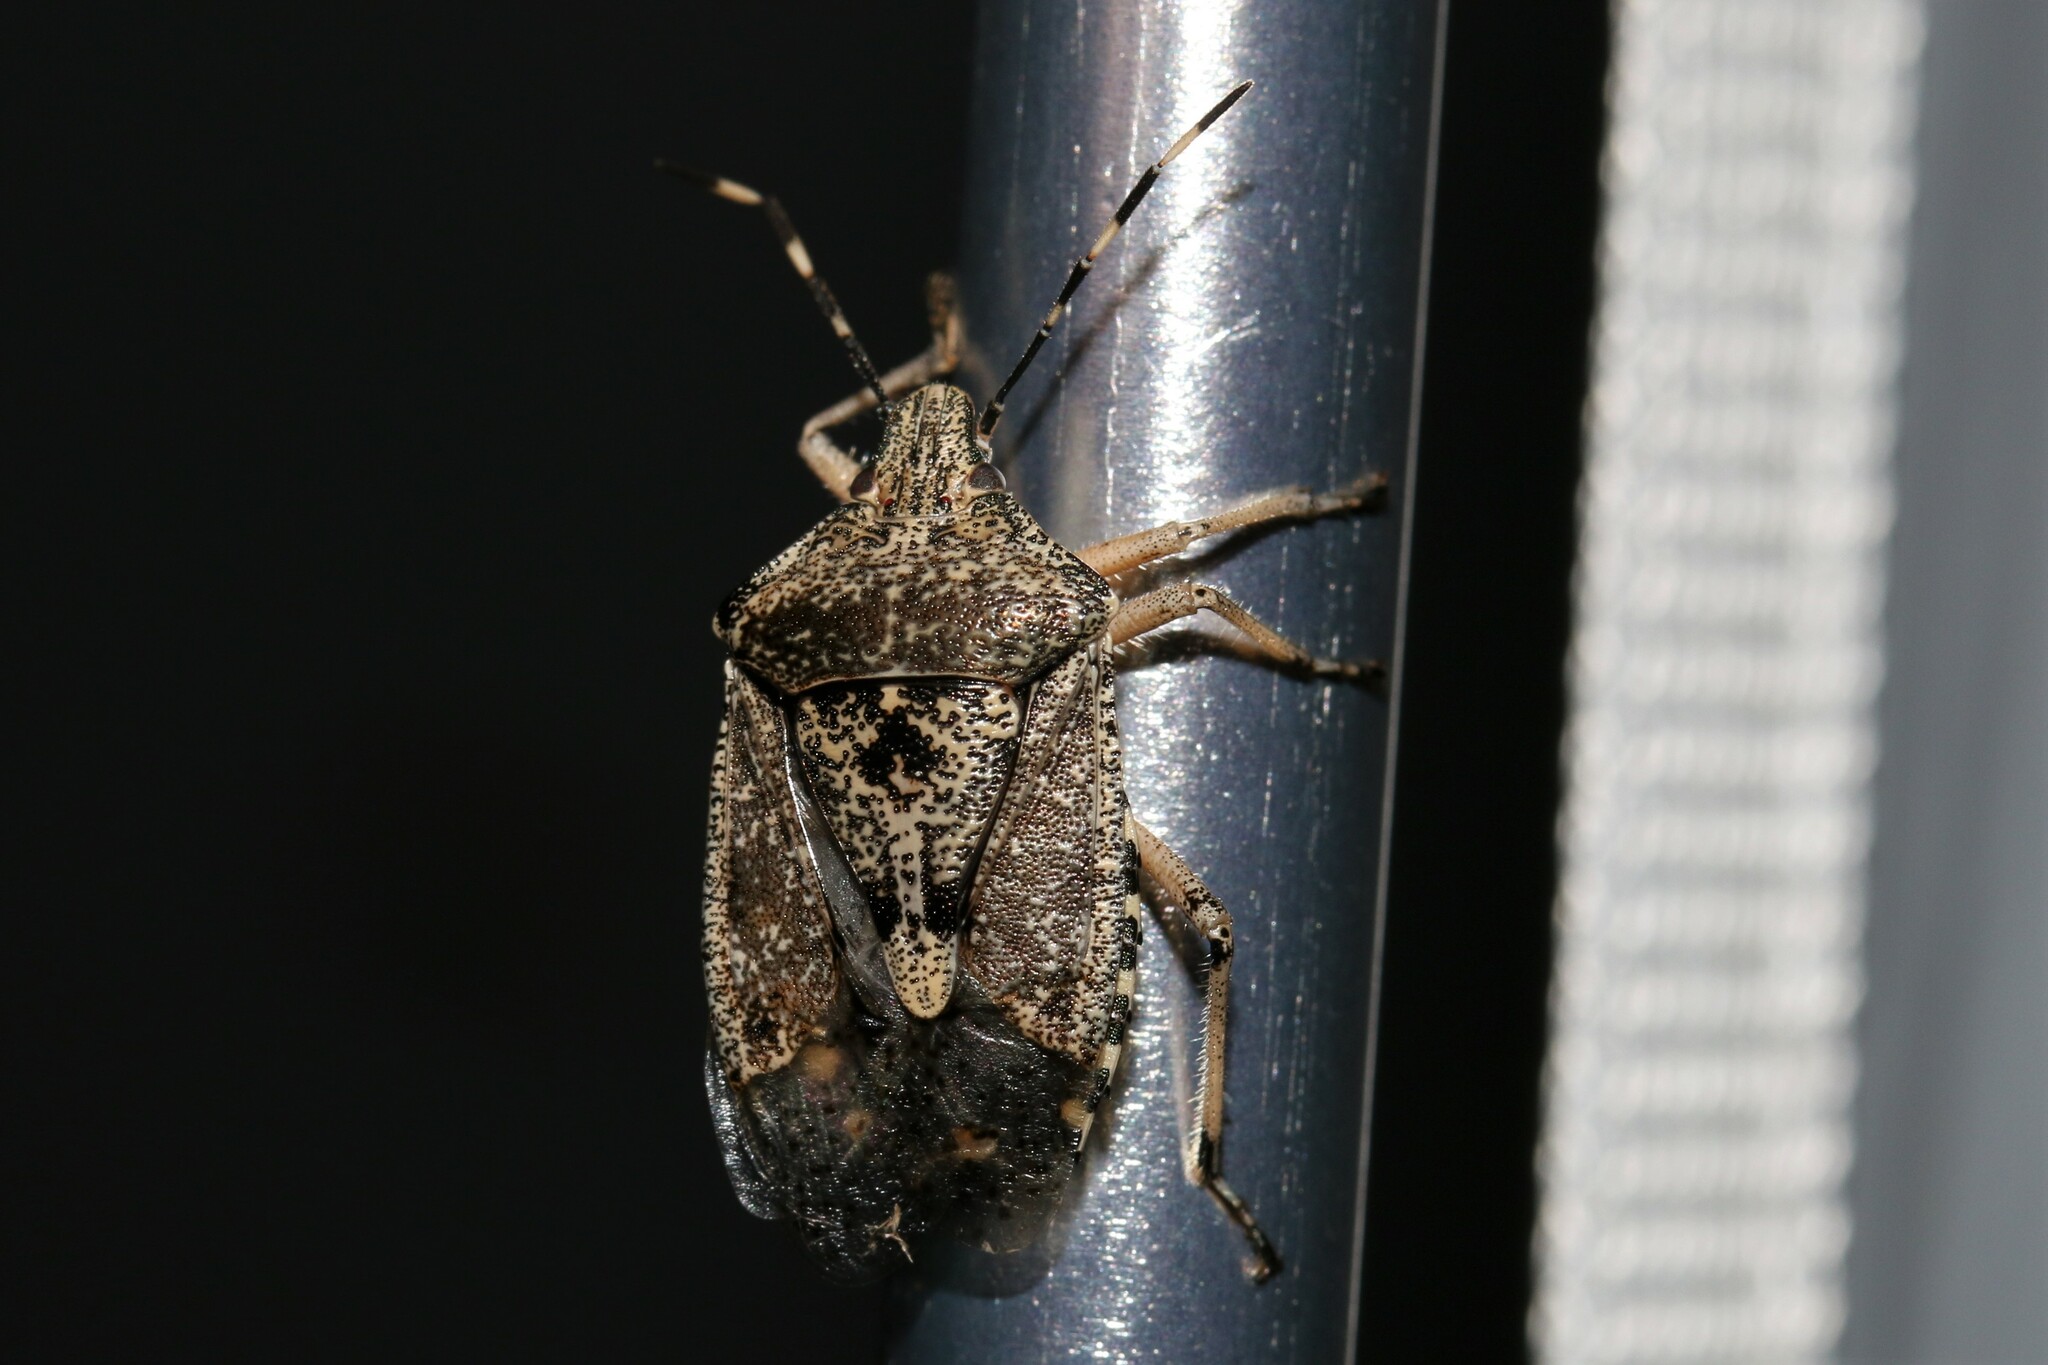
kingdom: Animalia
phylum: Arthropoda
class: Insecta
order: Hemiptera
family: Pentatomidae
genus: Rhaphigaster
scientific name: Rhaphigaster nebulosa
